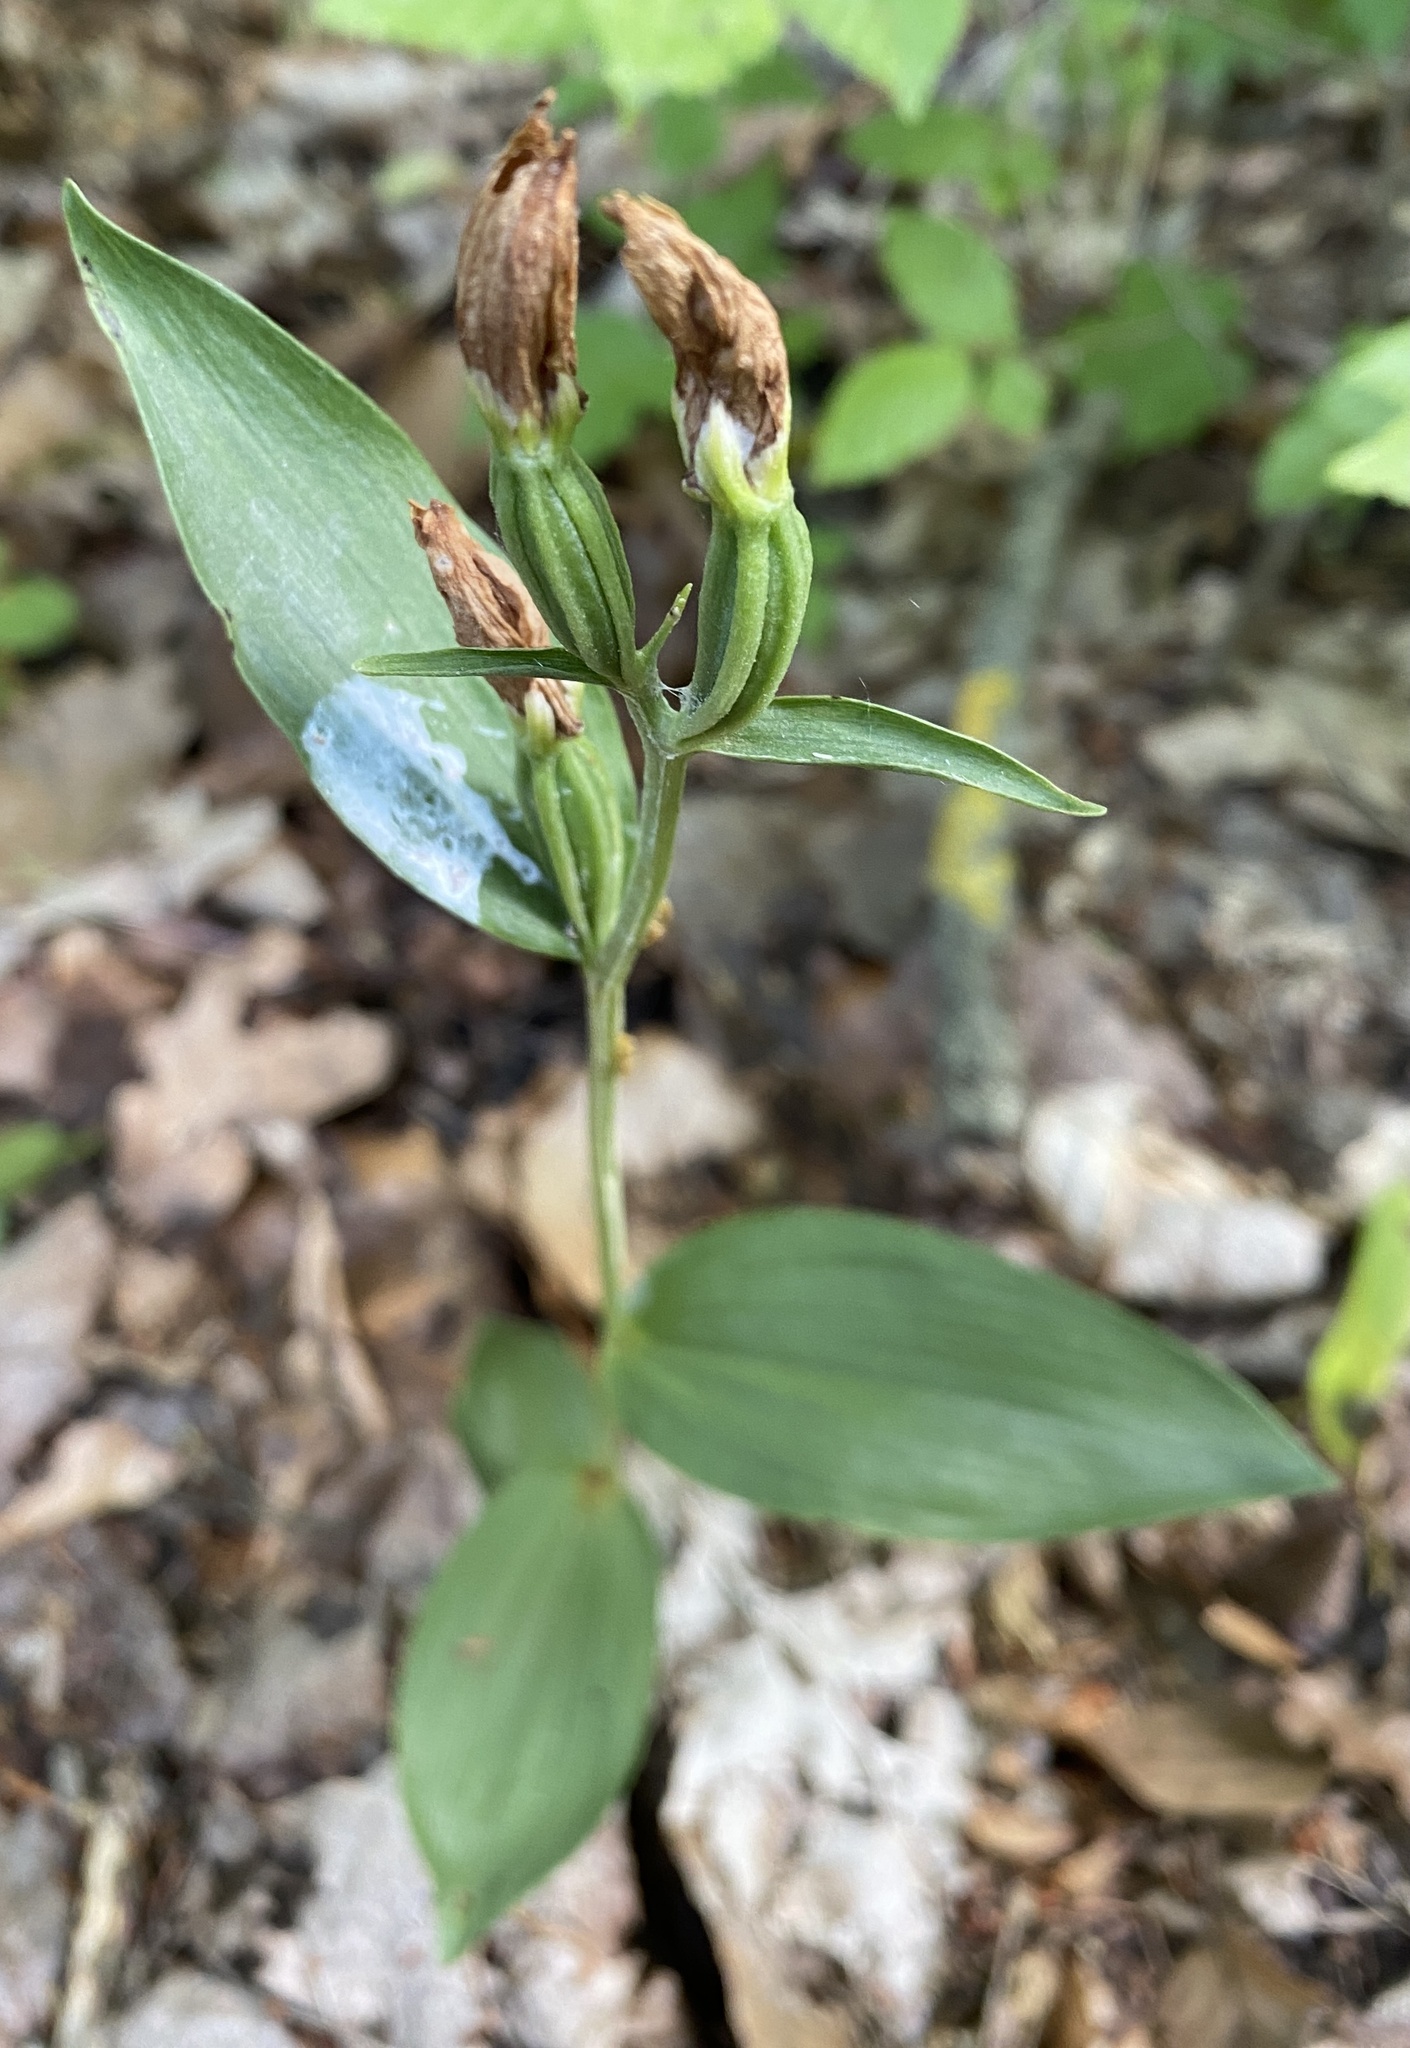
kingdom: Plantae
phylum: Tracheophyta
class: Liliopsida
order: Asparagales
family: Orchidaceae
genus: Cephalanthera
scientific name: Cephalanthera damasonium
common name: White helleborine
